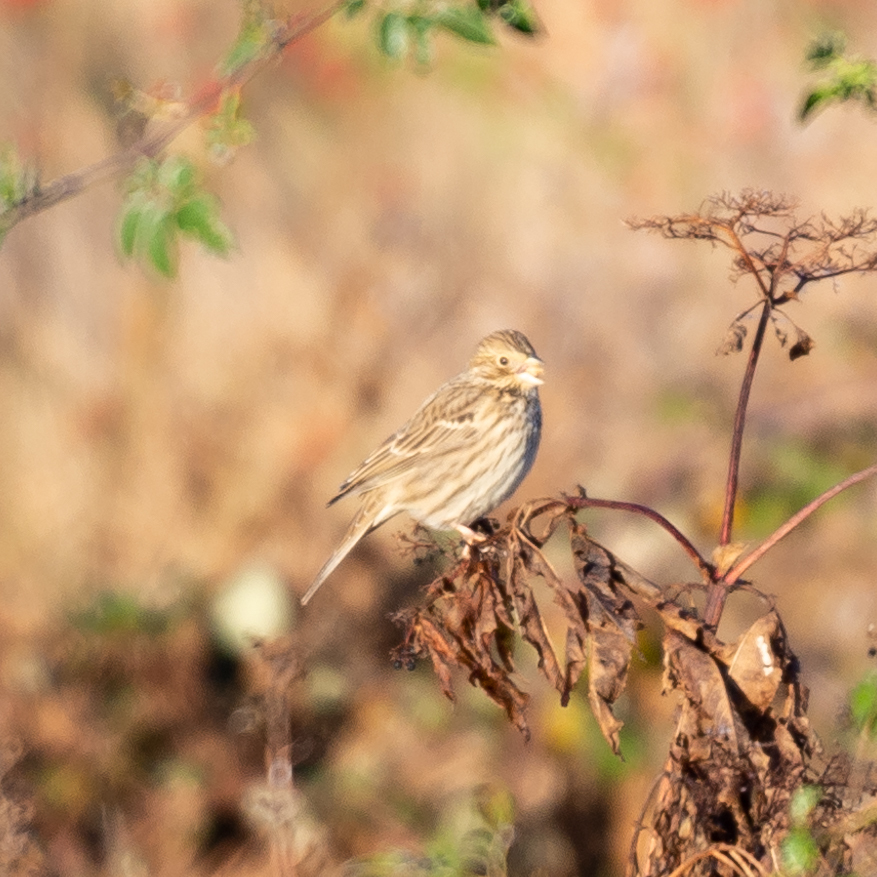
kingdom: Animalia
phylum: Chordata
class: Aves
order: Passeriformes
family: Emberizidae
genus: Emberiza
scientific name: Emberiza calandra
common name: Corn bunting
